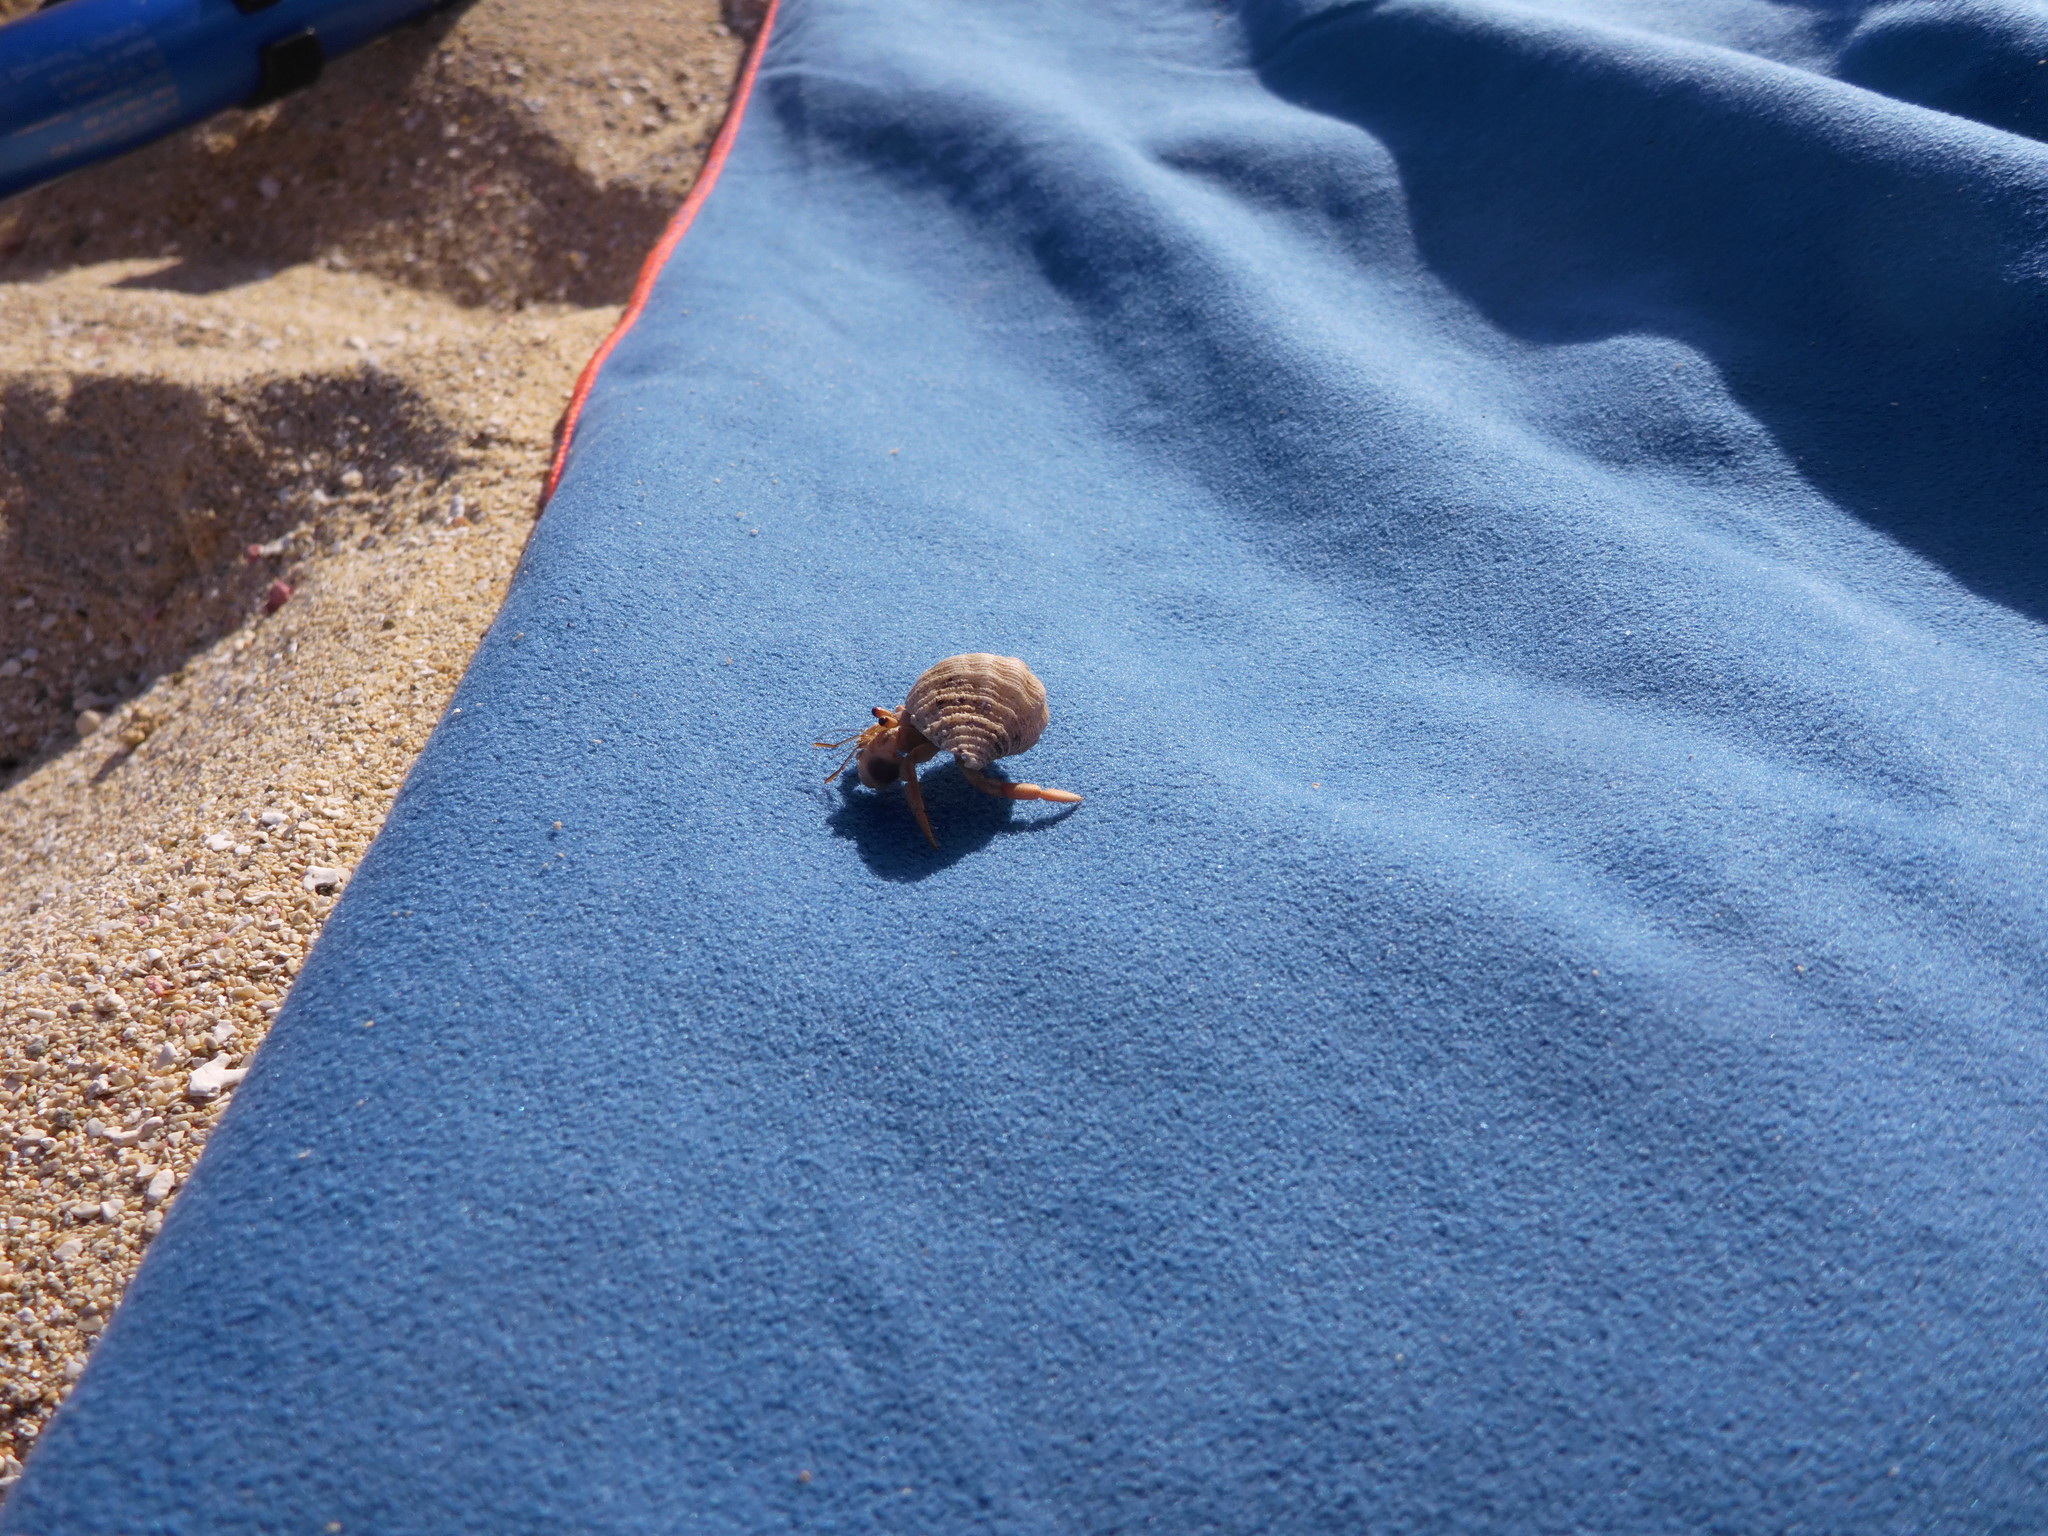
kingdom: Animalia
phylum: Arthropoda
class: Malacostraca
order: Decapoda
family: Coenobitidae
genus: Coenobita
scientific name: Coenobita clypeatus
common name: Caribbean hermit crab
